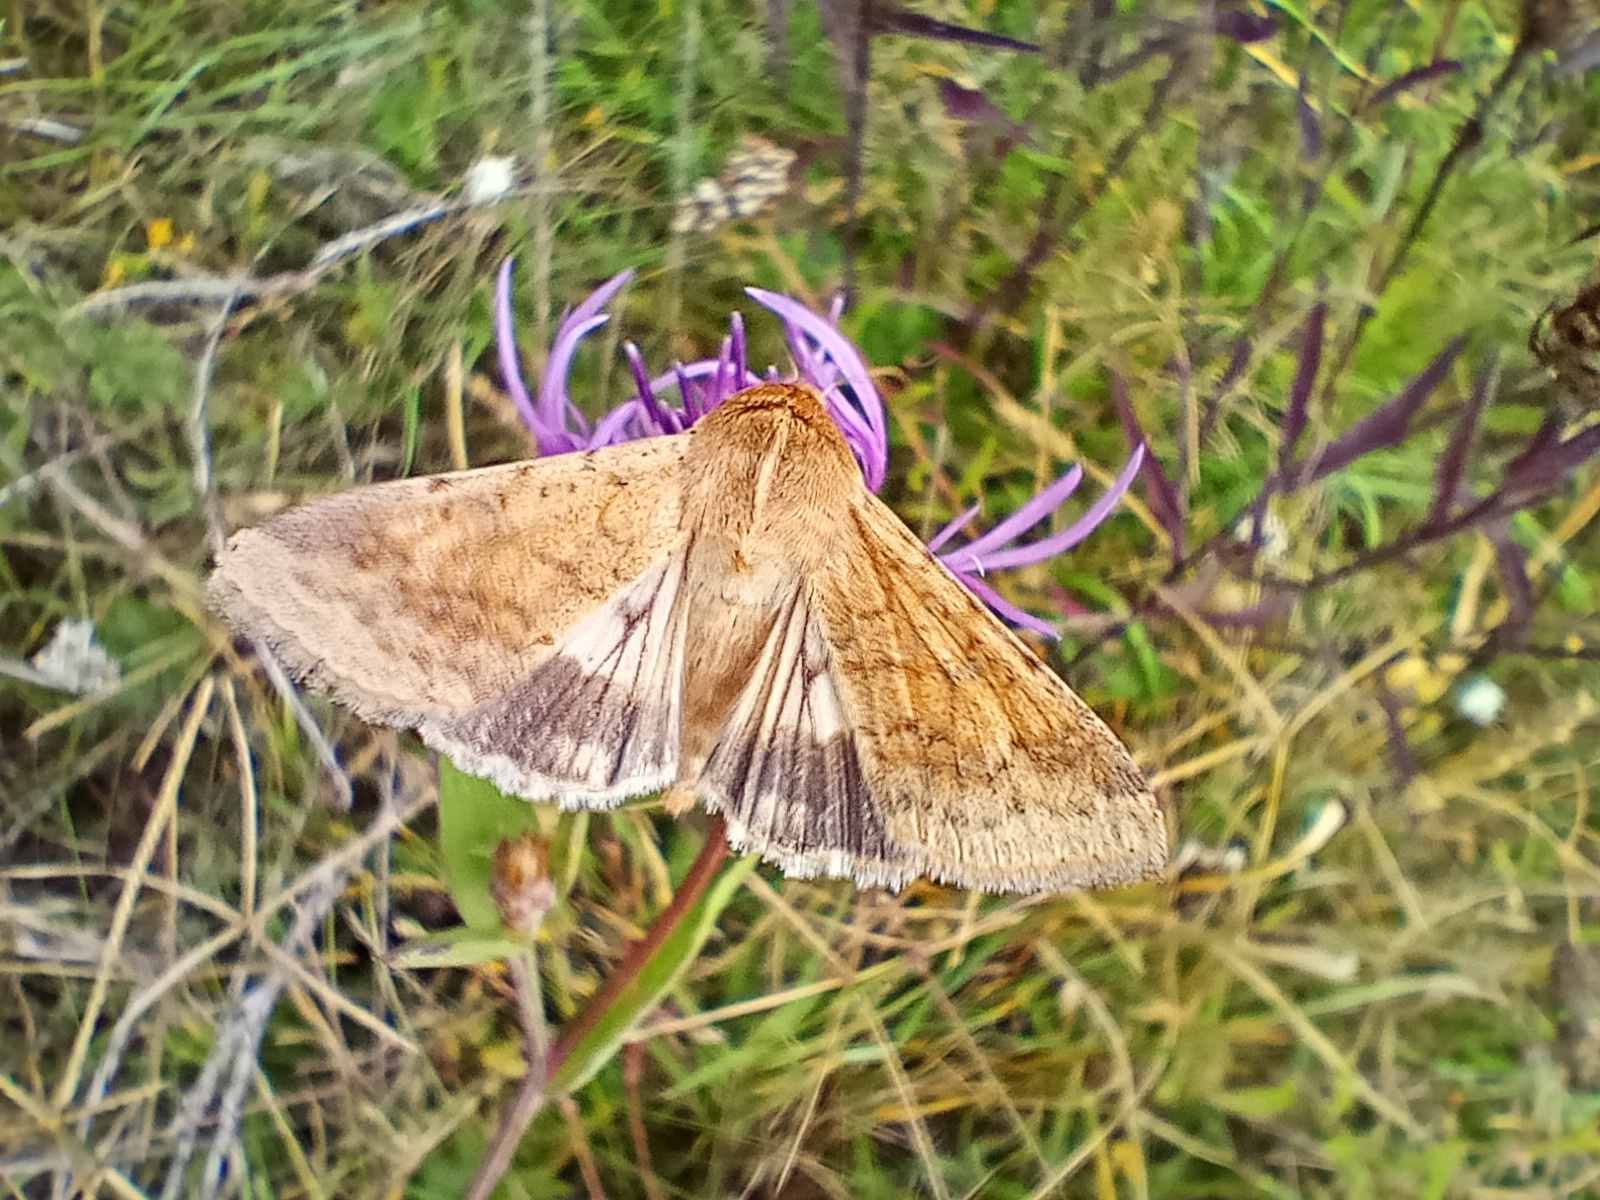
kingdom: Animalia
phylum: Arthropoda
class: Insecta
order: Lepidoptera
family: Noctuidae
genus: Helicoverpa
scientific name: Helicoverpa armigera
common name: Cotton bollworm
